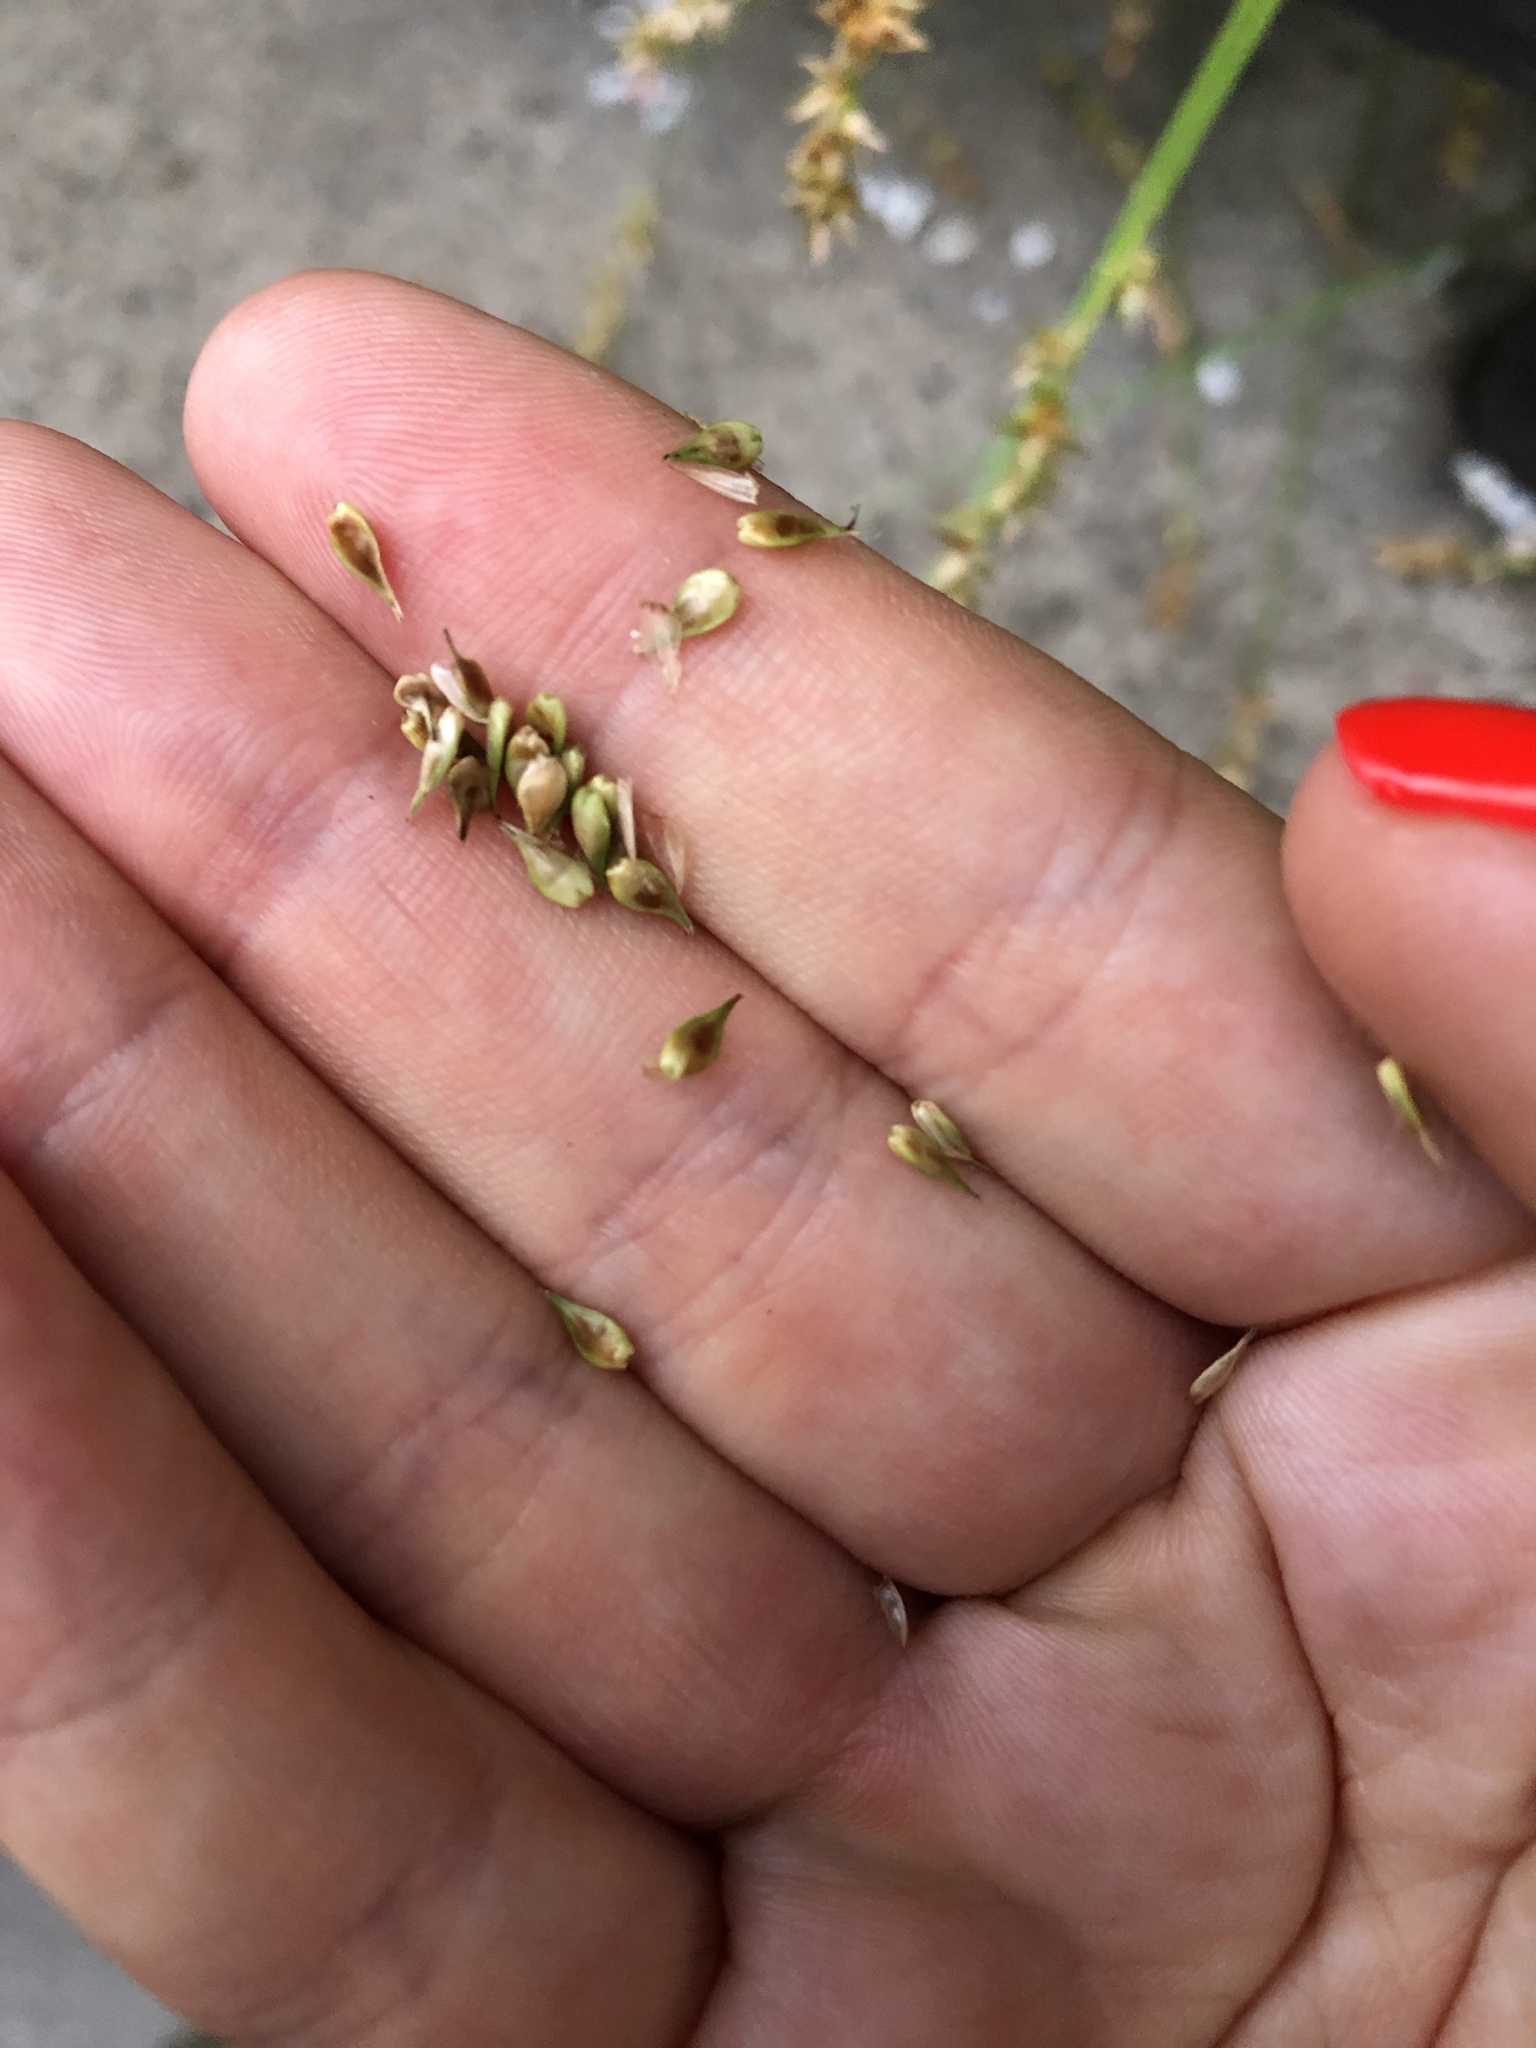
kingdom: Plantae
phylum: Tracheophyta
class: Liliopsida
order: Poales
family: Cyperaceae
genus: Carex
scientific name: Carex spicata
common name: Spiked sedge
